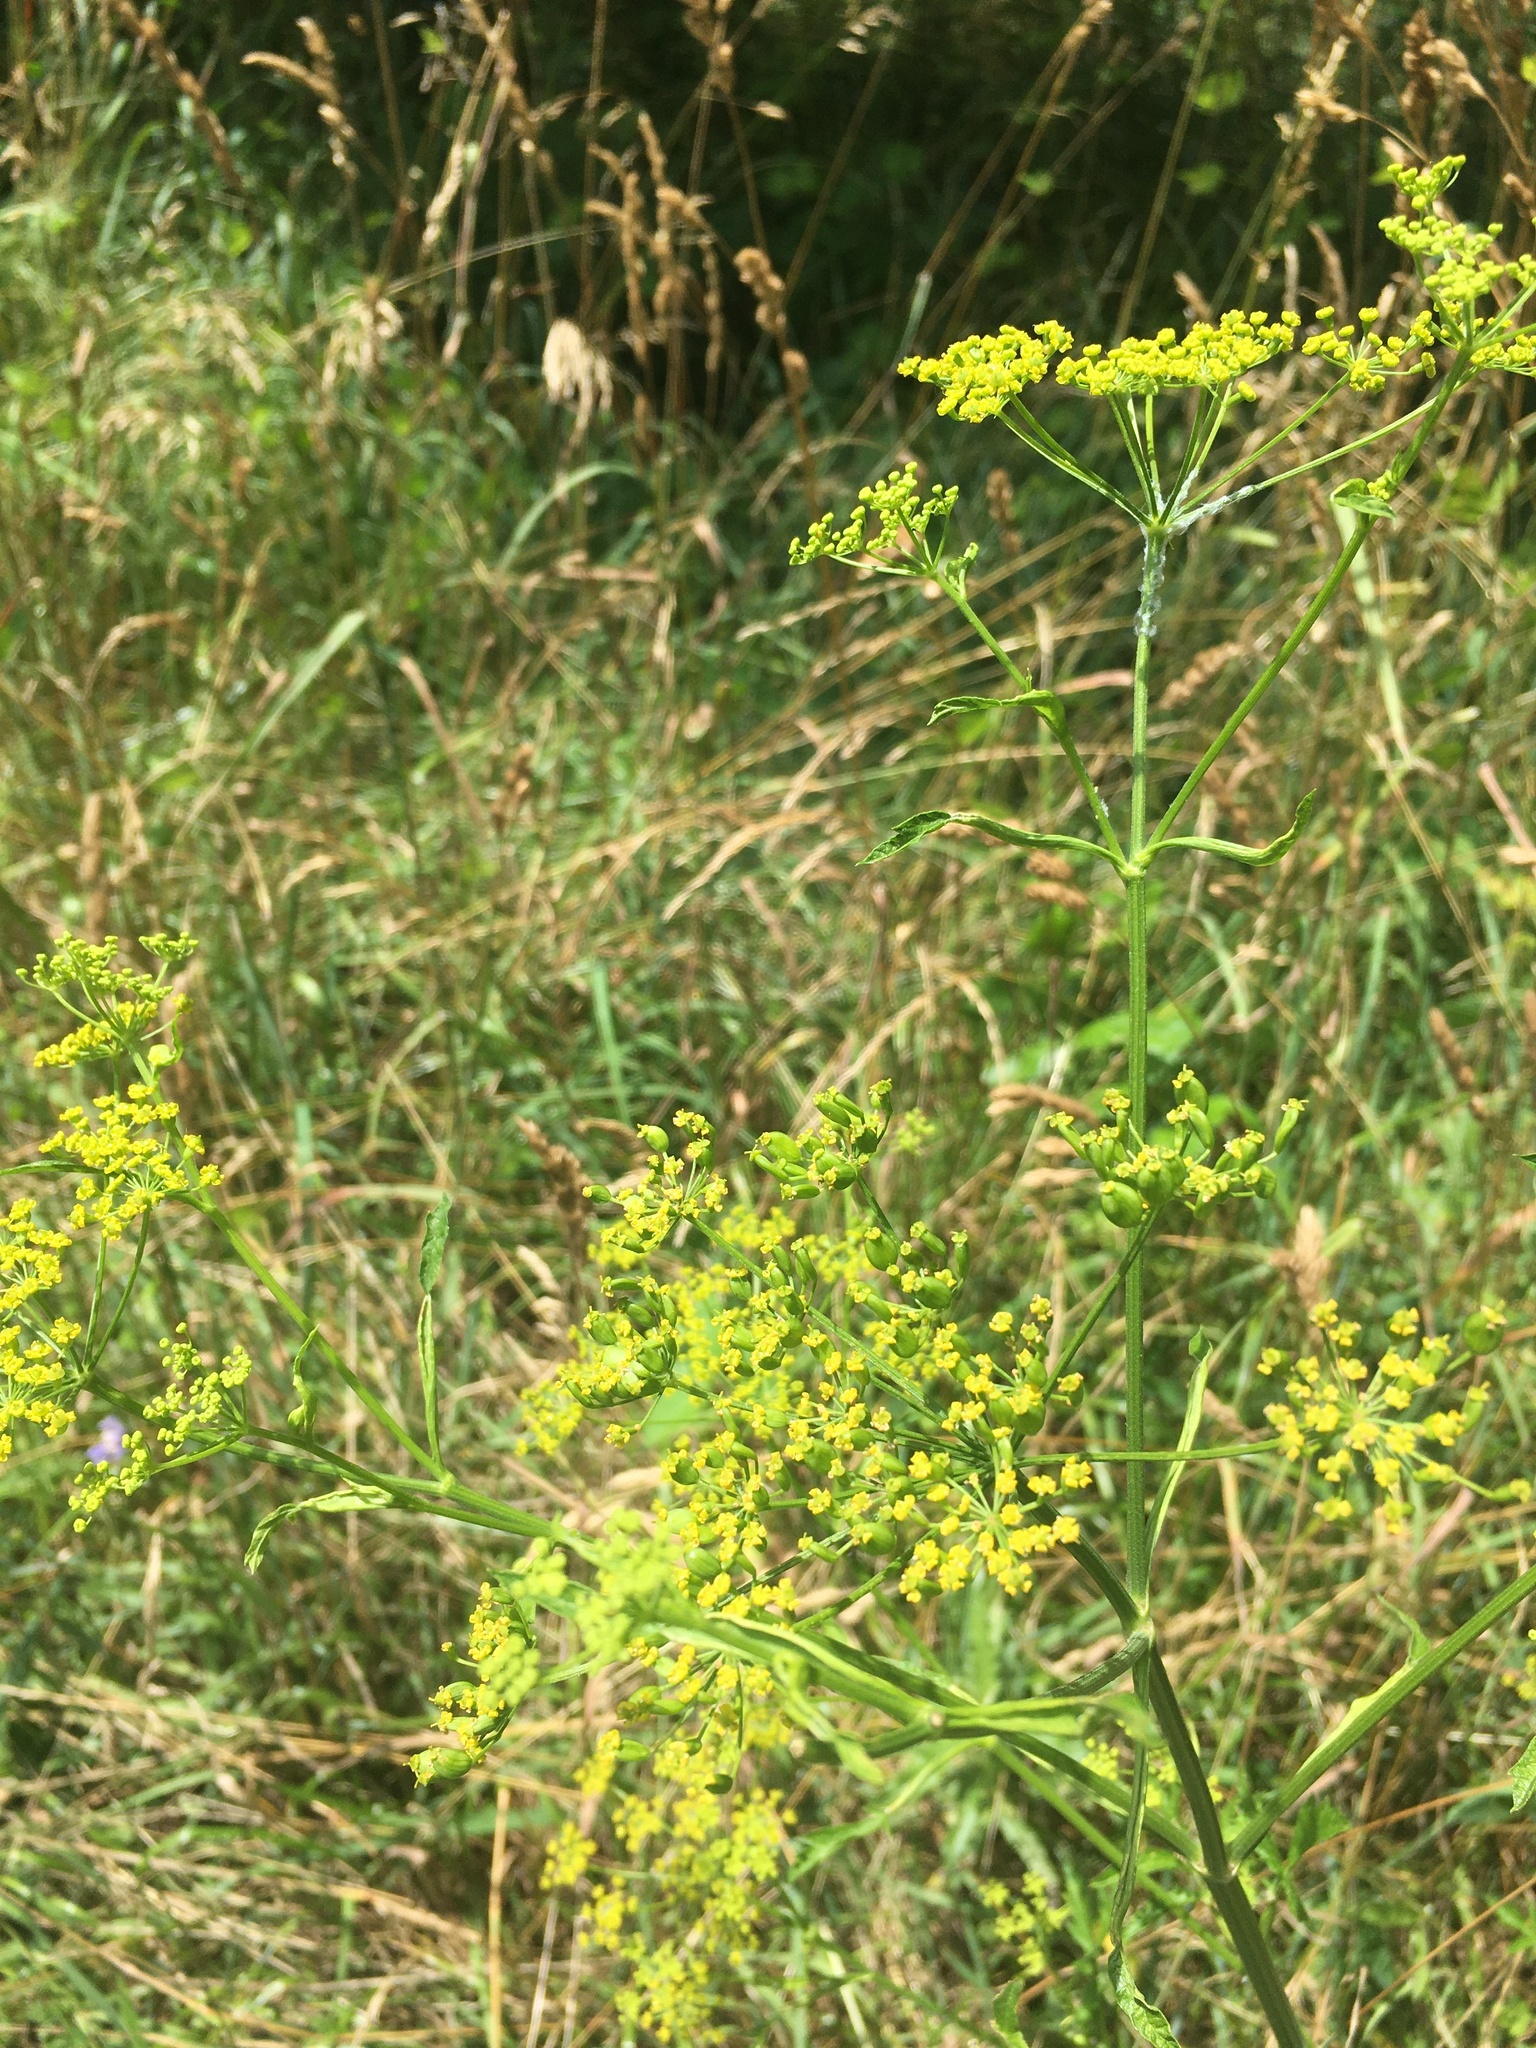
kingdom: Plantae
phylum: Tracheophyta
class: Magnoliopsida
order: Apiales
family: Apiaceae
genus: Pastinaca
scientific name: Pastinaca sativa
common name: Wild parsnip
